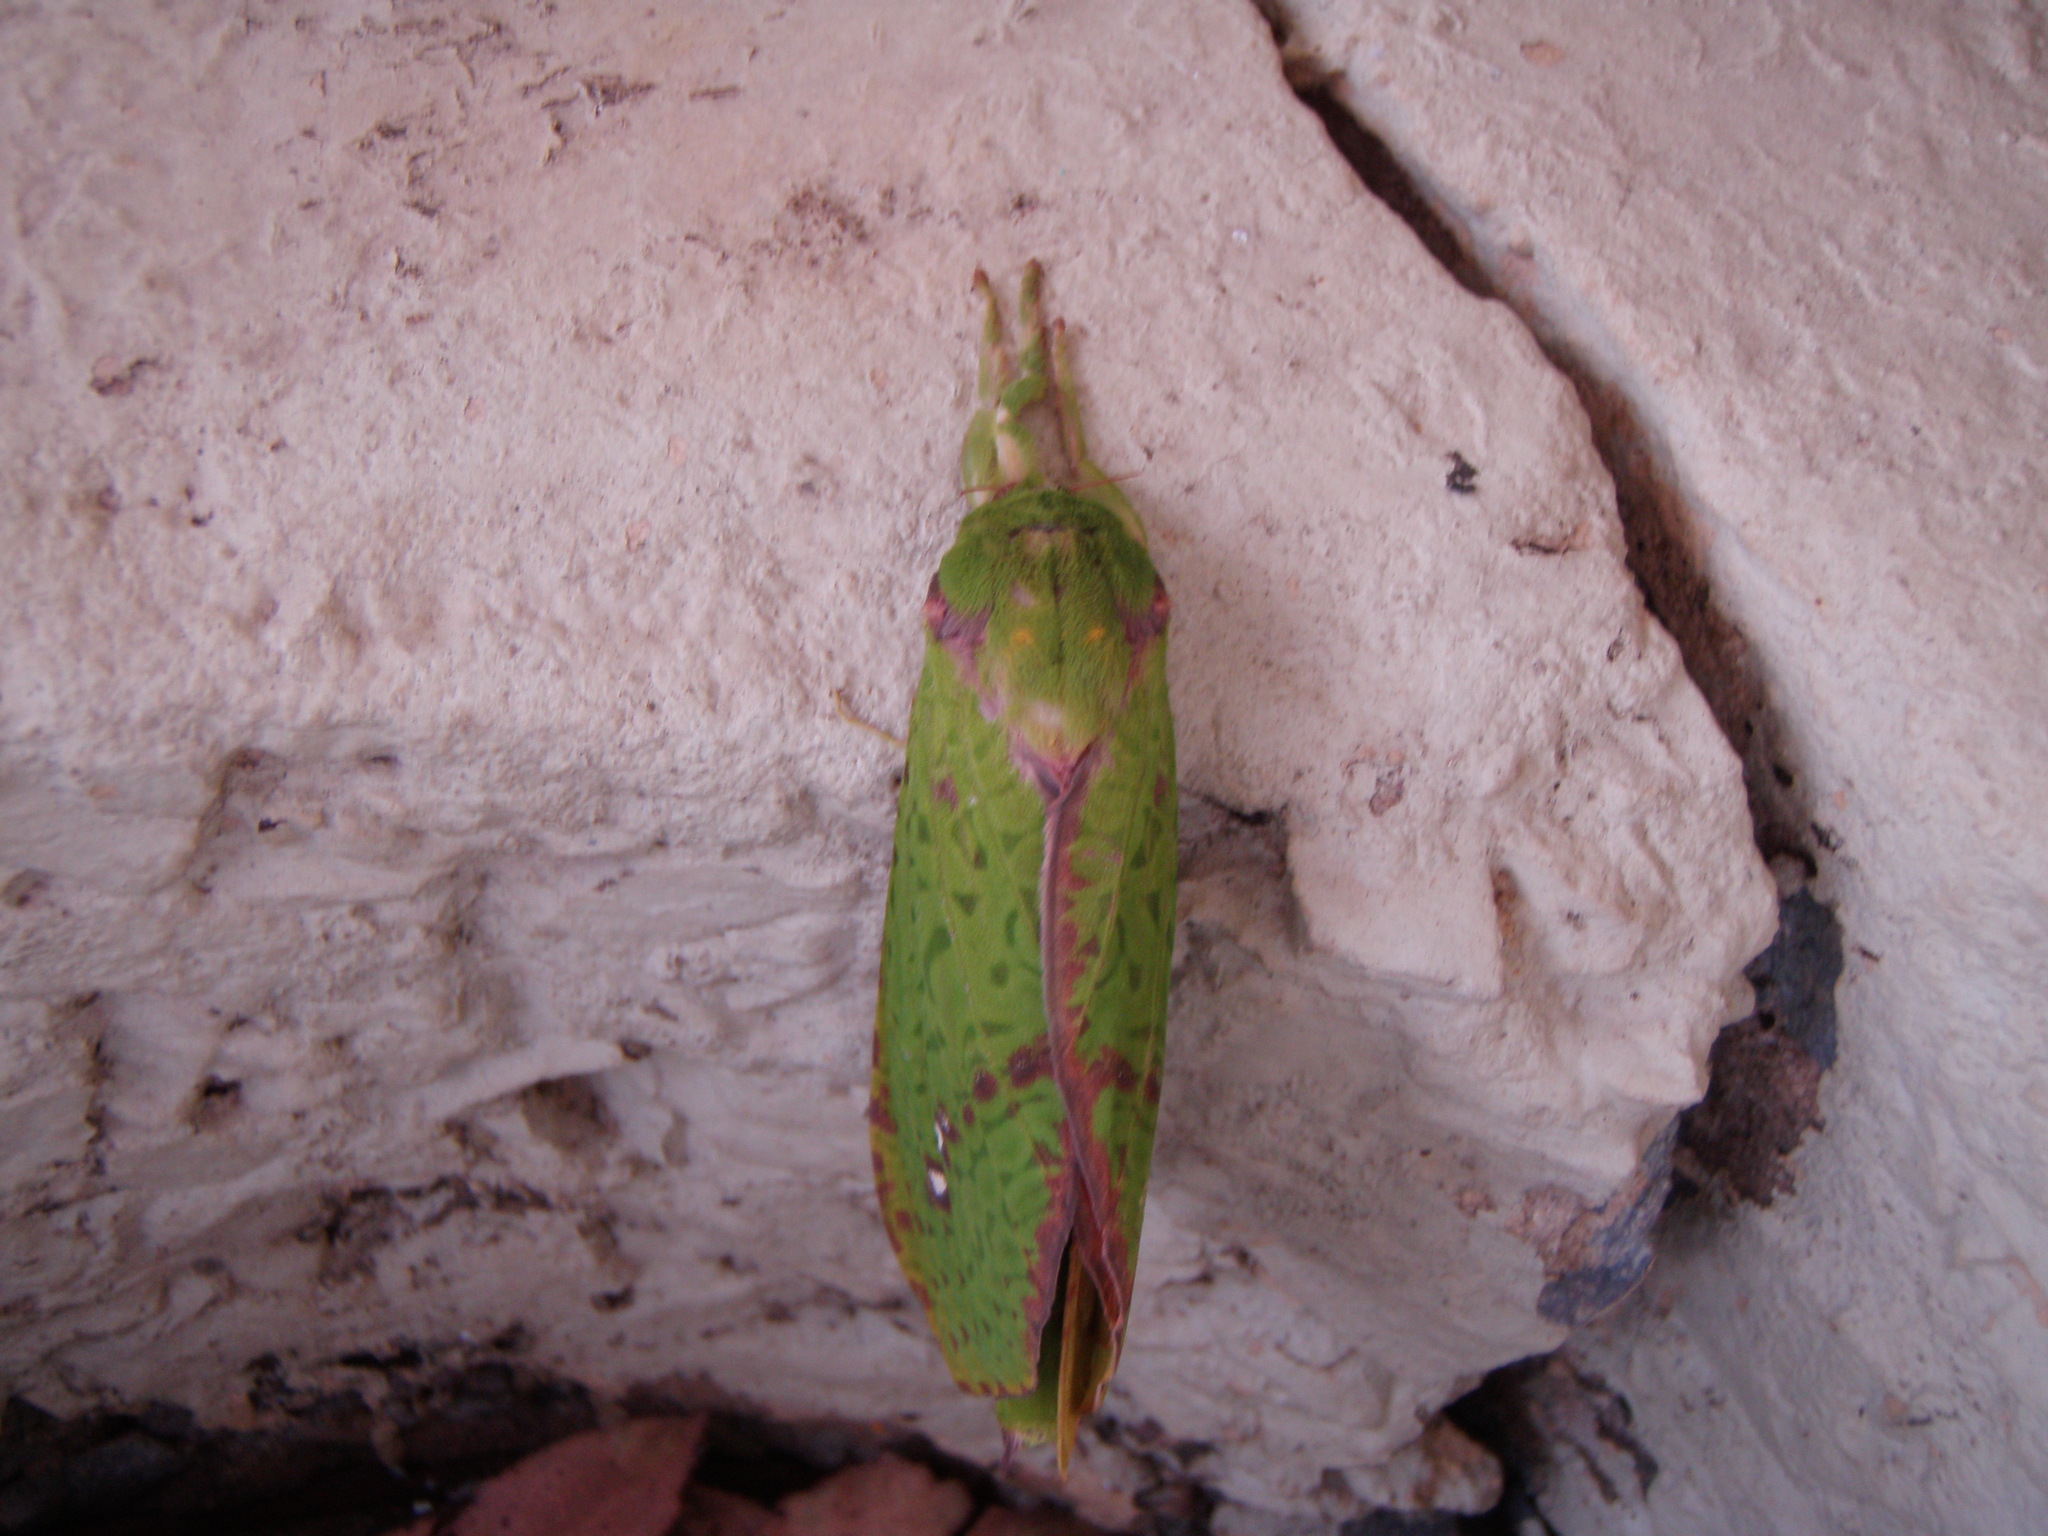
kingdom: Animalia
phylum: Arthropoda
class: Insecta
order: Lepidoptera
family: Hepialidae
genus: Aenetus
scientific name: Aenetus eximia
